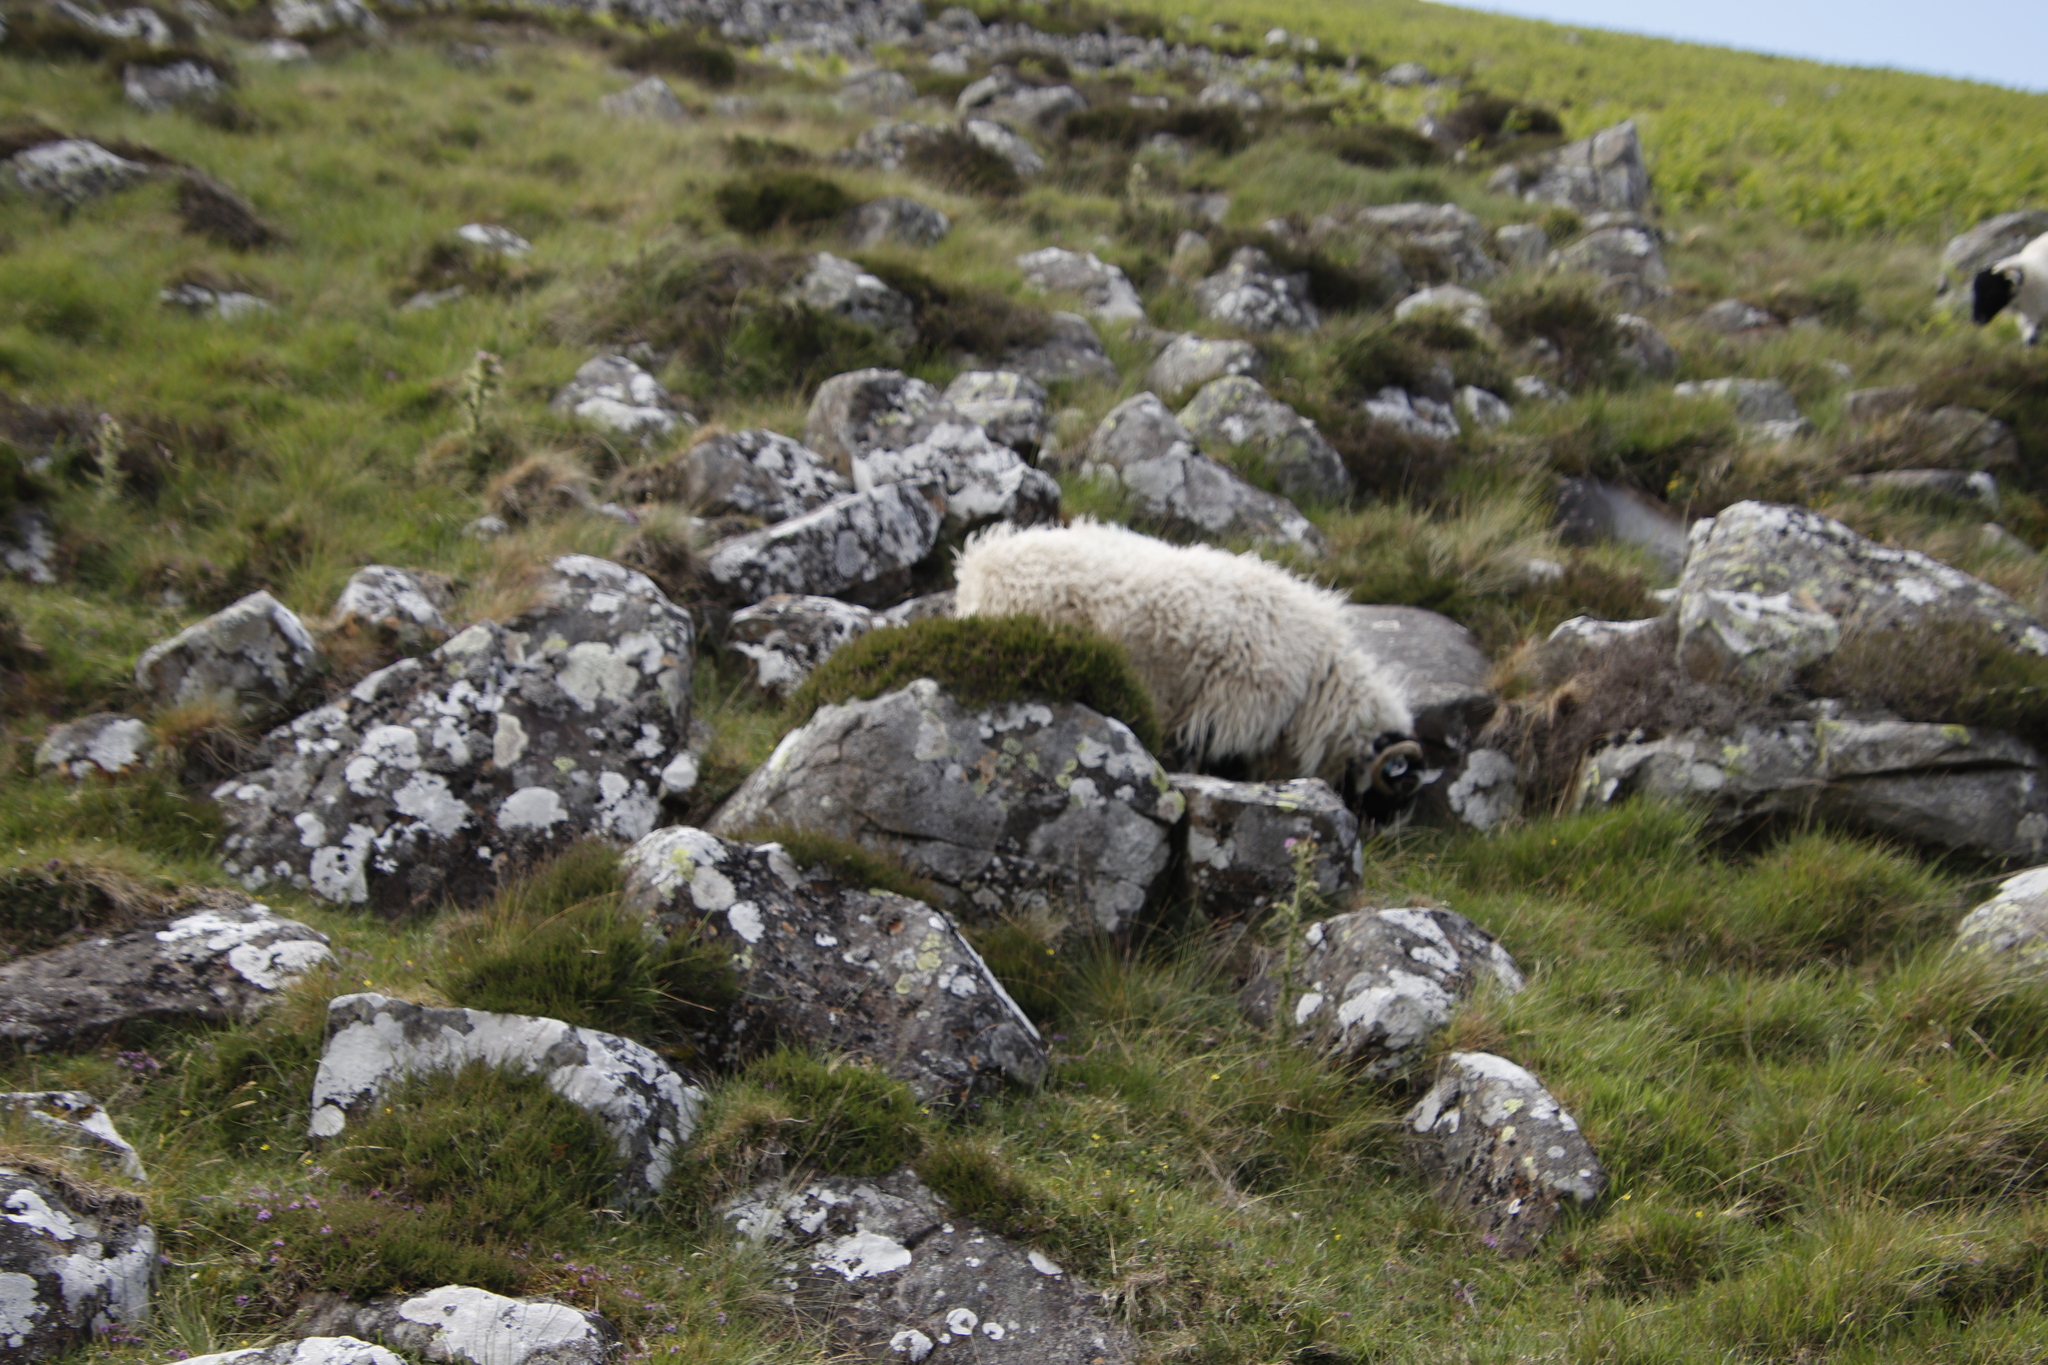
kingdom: Plantae
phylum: Tracheophyta
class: Magnoliopsida
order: Ericales
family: Ericaceae
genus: Calluna
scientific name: Calluna vulgaris
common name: Heather
